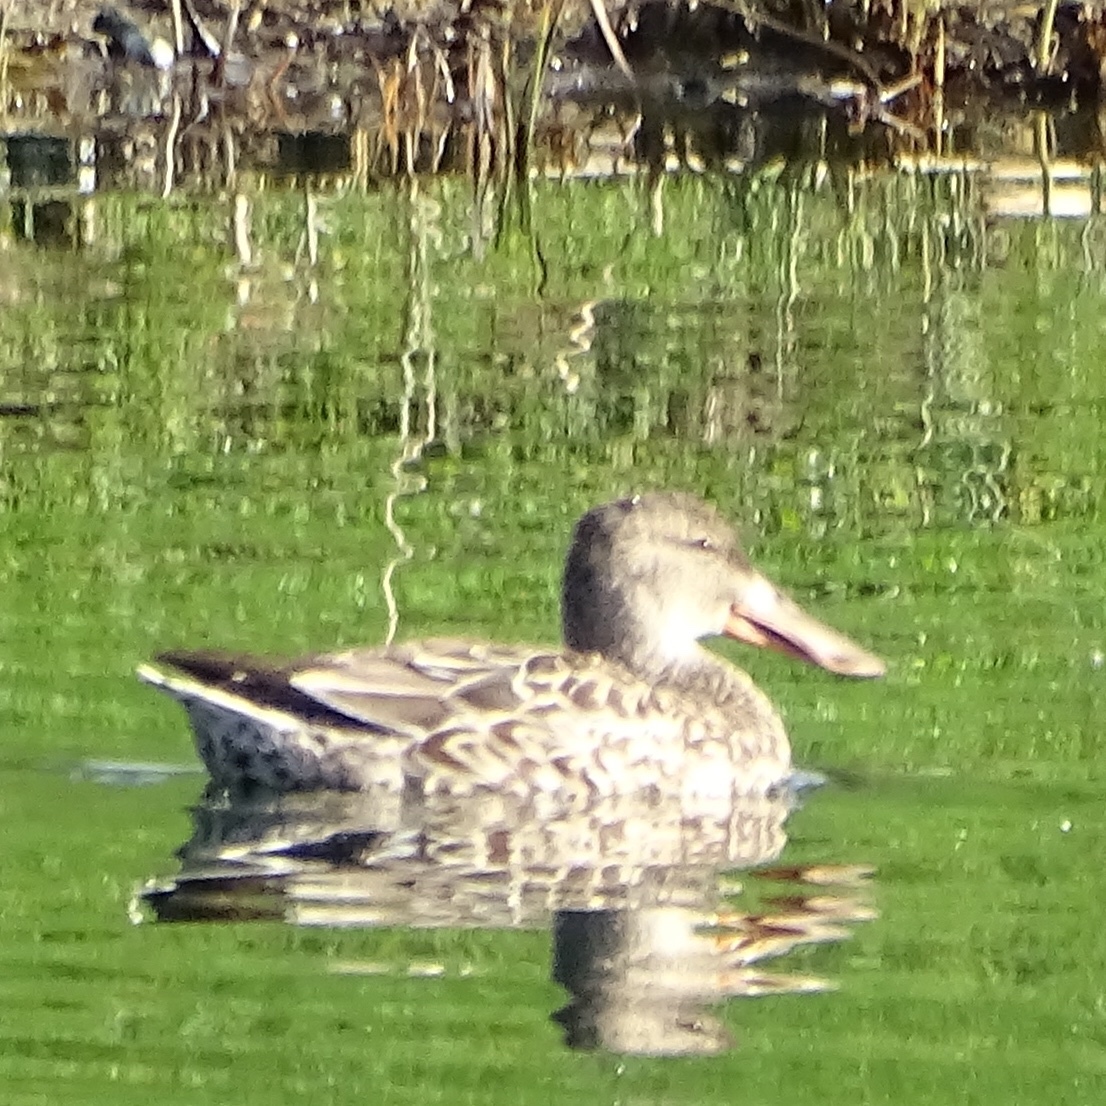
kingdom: Animalia
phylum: Chordata
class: Aves
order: Anseriformes
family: Anatidae
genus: Spatula
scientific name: Spatula clypeata
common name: Northern shoveler
